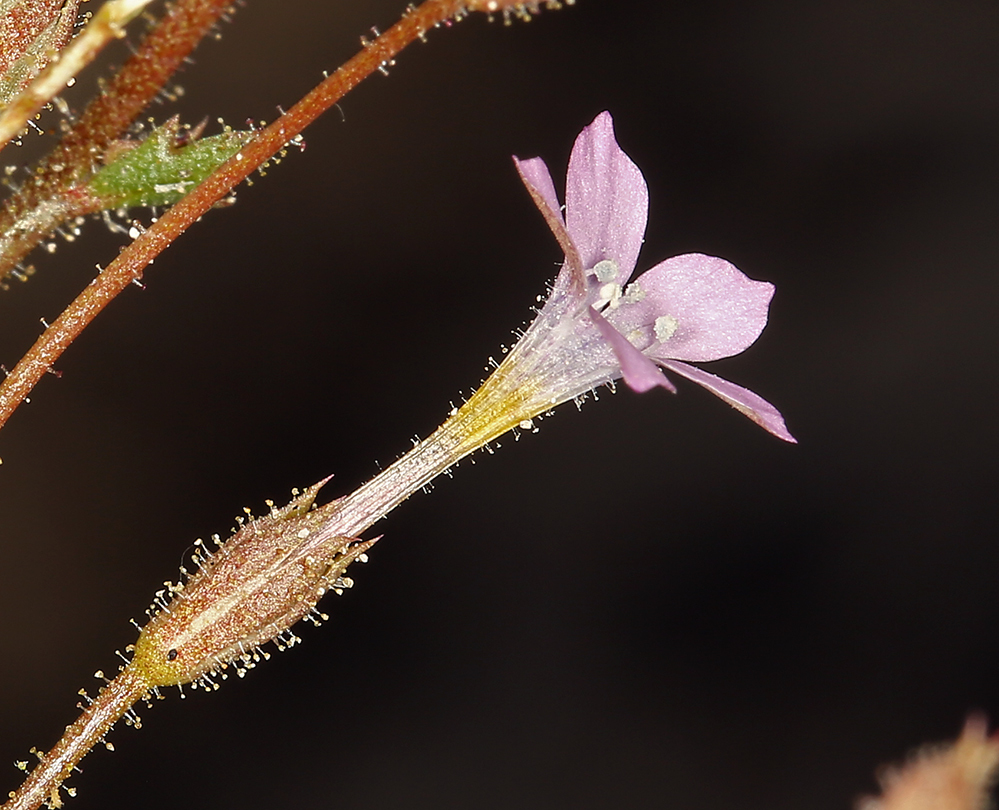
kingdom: Plantae
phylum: Tracheophyta
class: Magnoliopsida
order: Ericales
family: Polemoniaceae
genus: Gilia
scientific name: Gilia scopulorum
